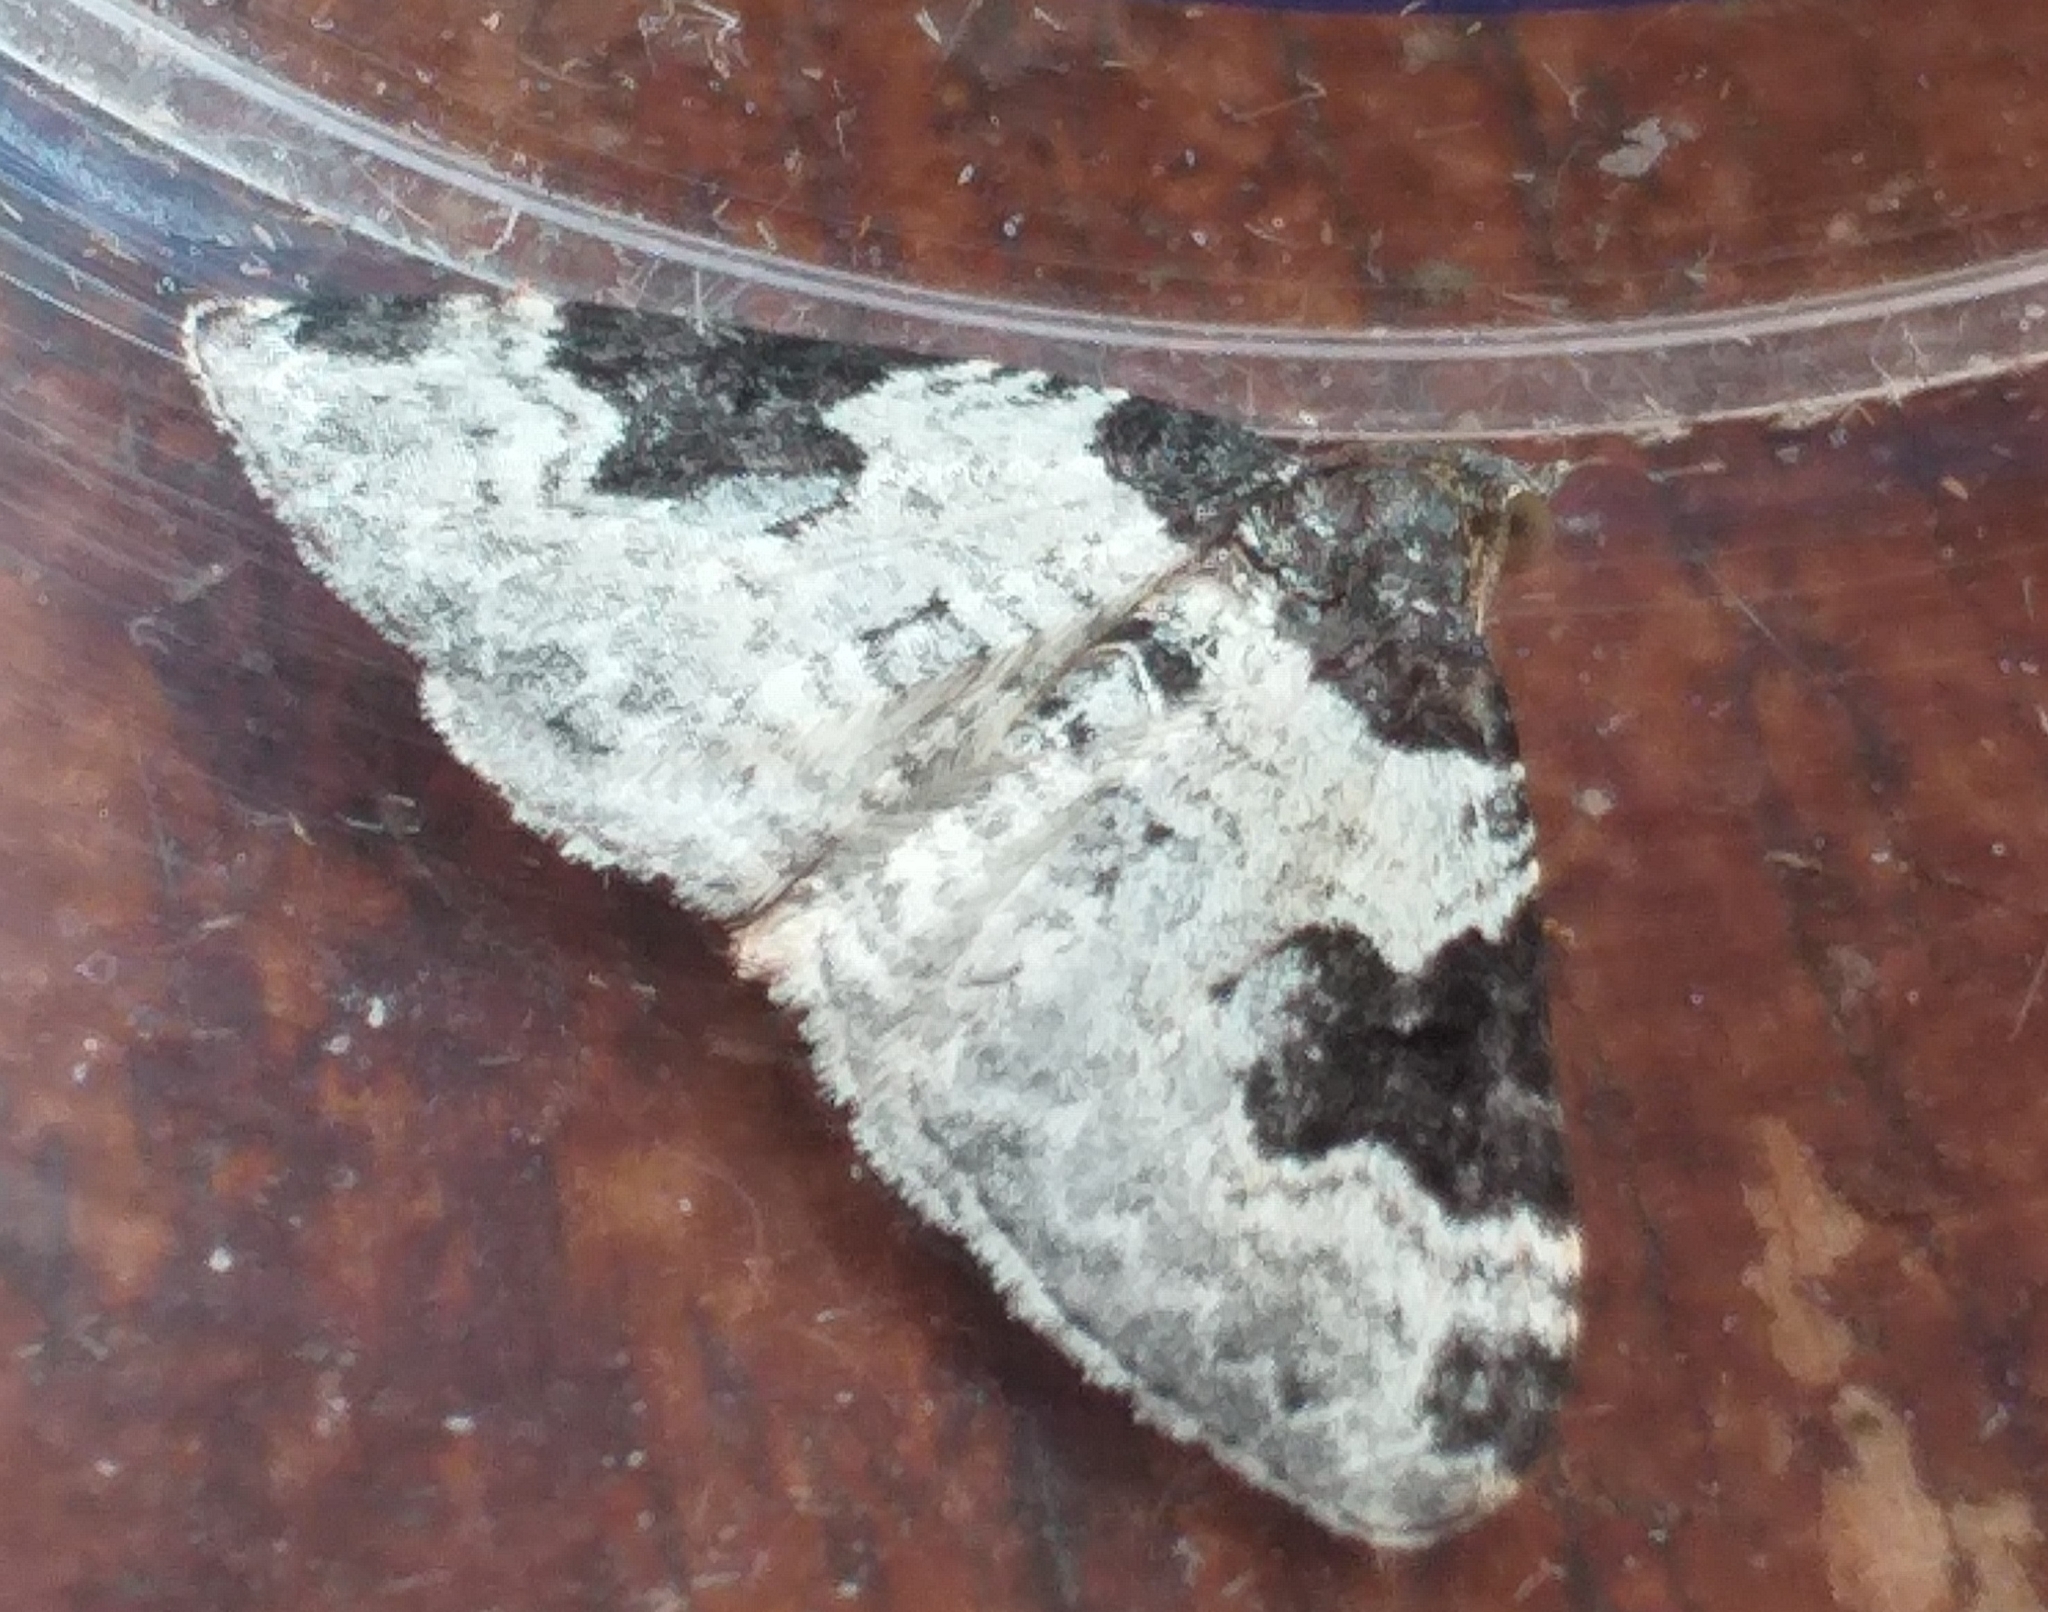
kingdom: Animalia
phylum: Arthropoda
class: Insecta
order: Lepidoptera
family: Geometridae
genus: Xanthorhoe
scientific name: Xanthorhoe fluctuata
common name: Garden carpet
